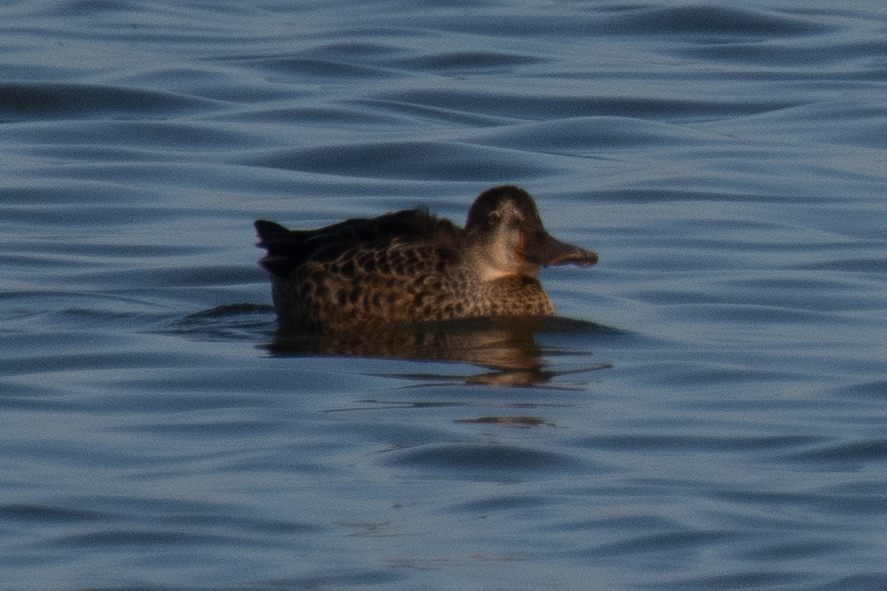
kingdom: Animalia
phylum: Chordata
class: Aves
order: Anseriformes
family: Anatidae
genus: Spatula
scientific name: Spatula clypeata
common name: Northern shoveler
